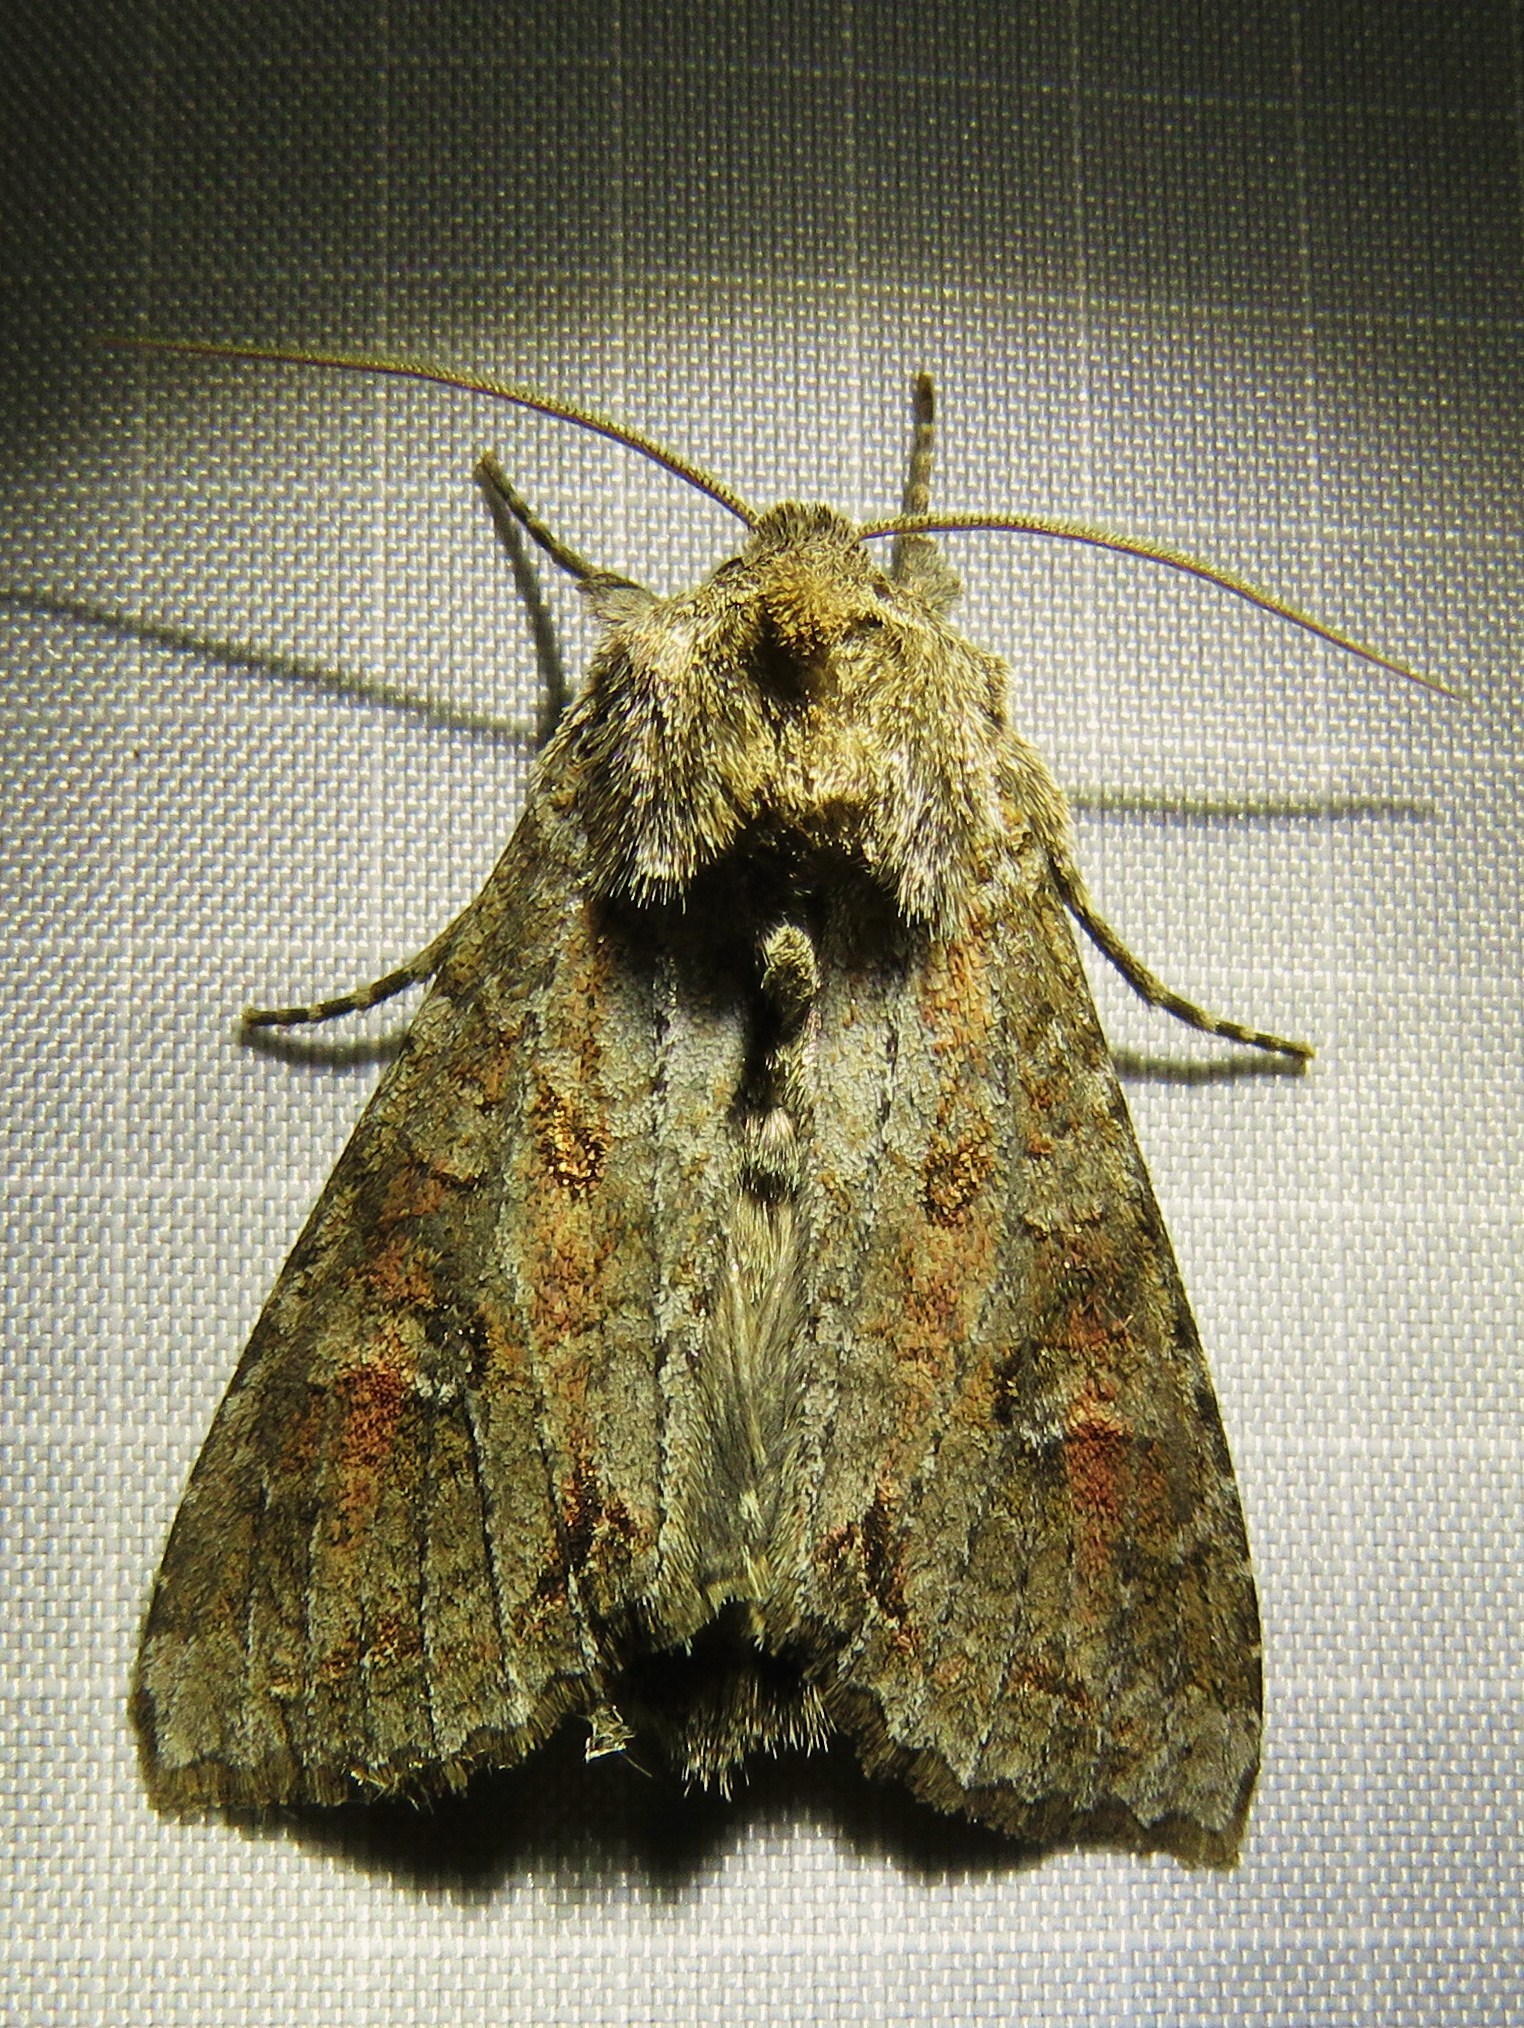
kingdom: Animalia
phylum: Arthropoda
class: Insecta
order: Lepidoptera
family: Noctuidae
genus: Polia
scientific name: Polia bombycina
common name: Pale shining brown
